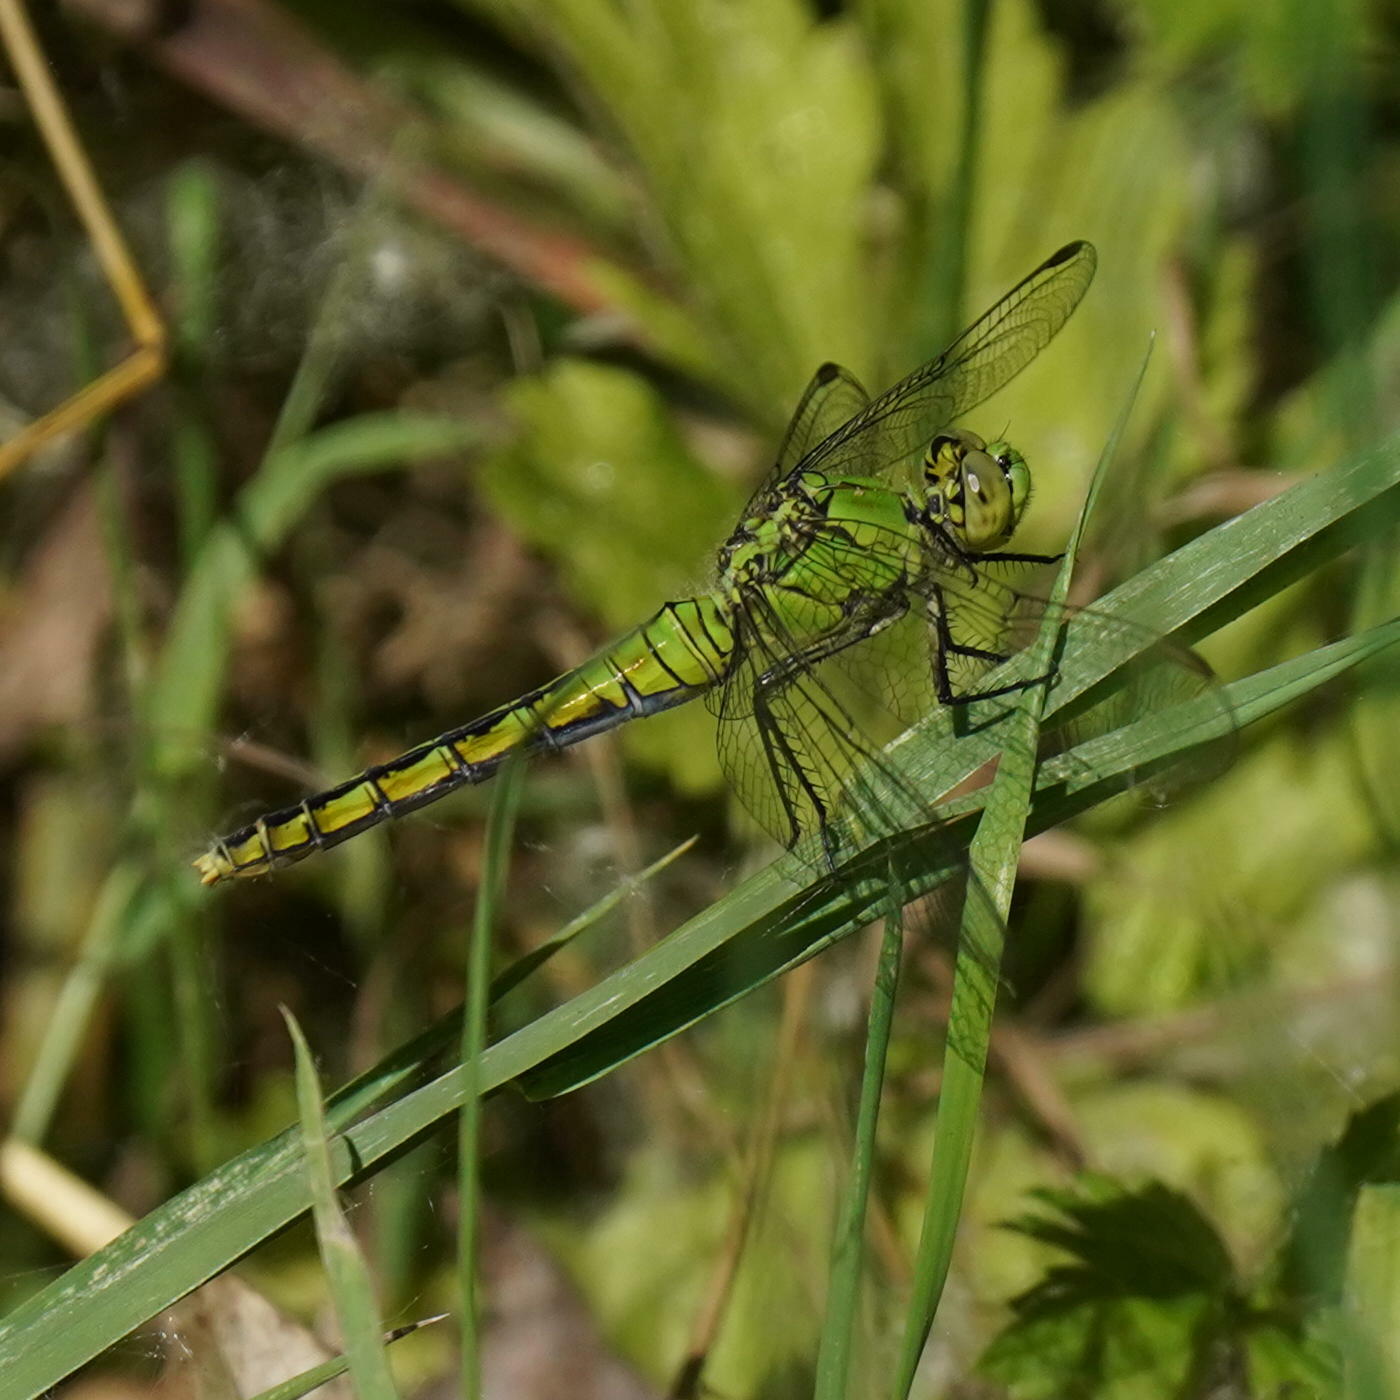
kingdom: Animalia
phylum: Arthropoda
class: Insecta
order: Odonata
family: Libellulidae
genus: Erythemis
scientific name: Erythemis collocata
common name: Western pondhawk
